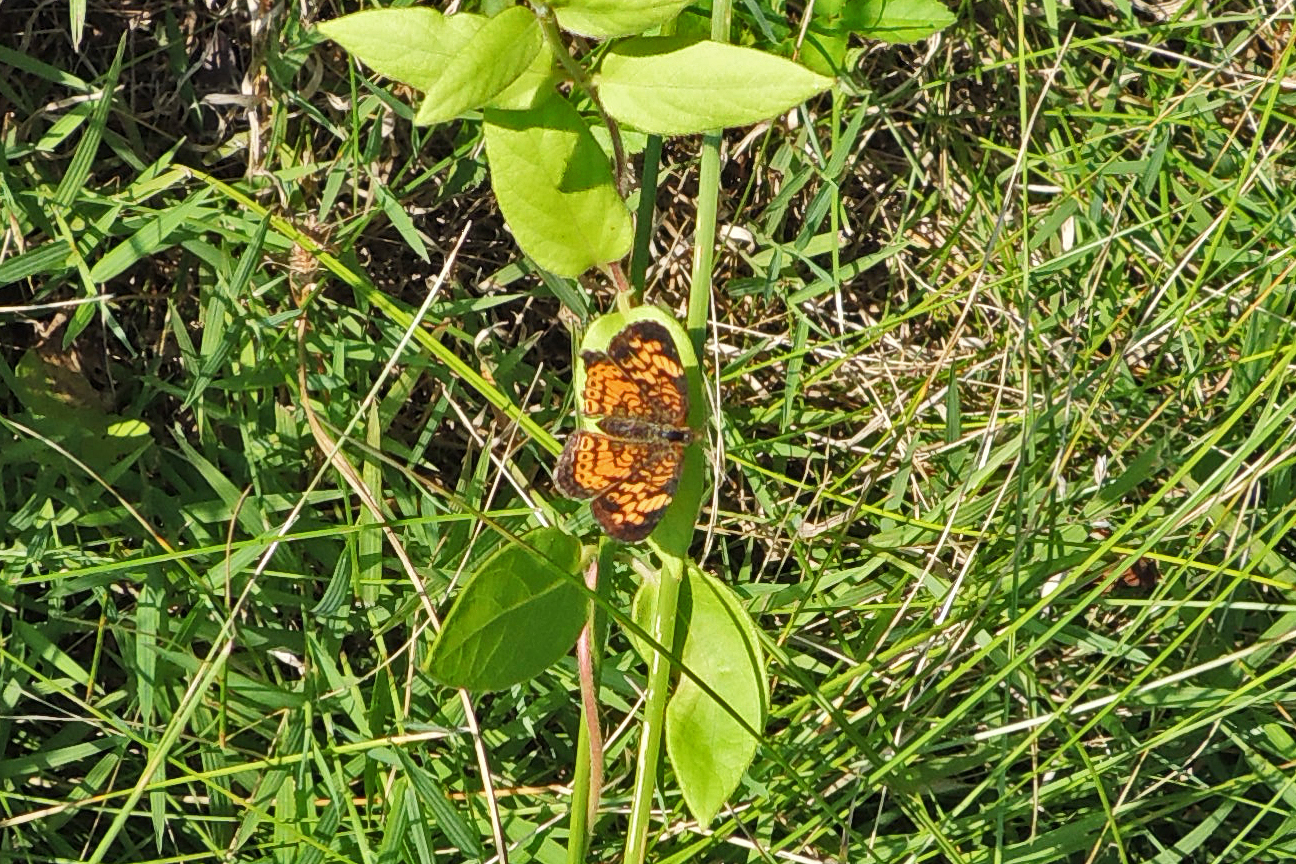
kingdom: Animalia
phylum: Arthropoda
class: Insecta
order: Lepidoptera
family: Nymphalidae
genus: Phyciodes
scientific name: Phyciodes tharos
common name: Pearl crescent
